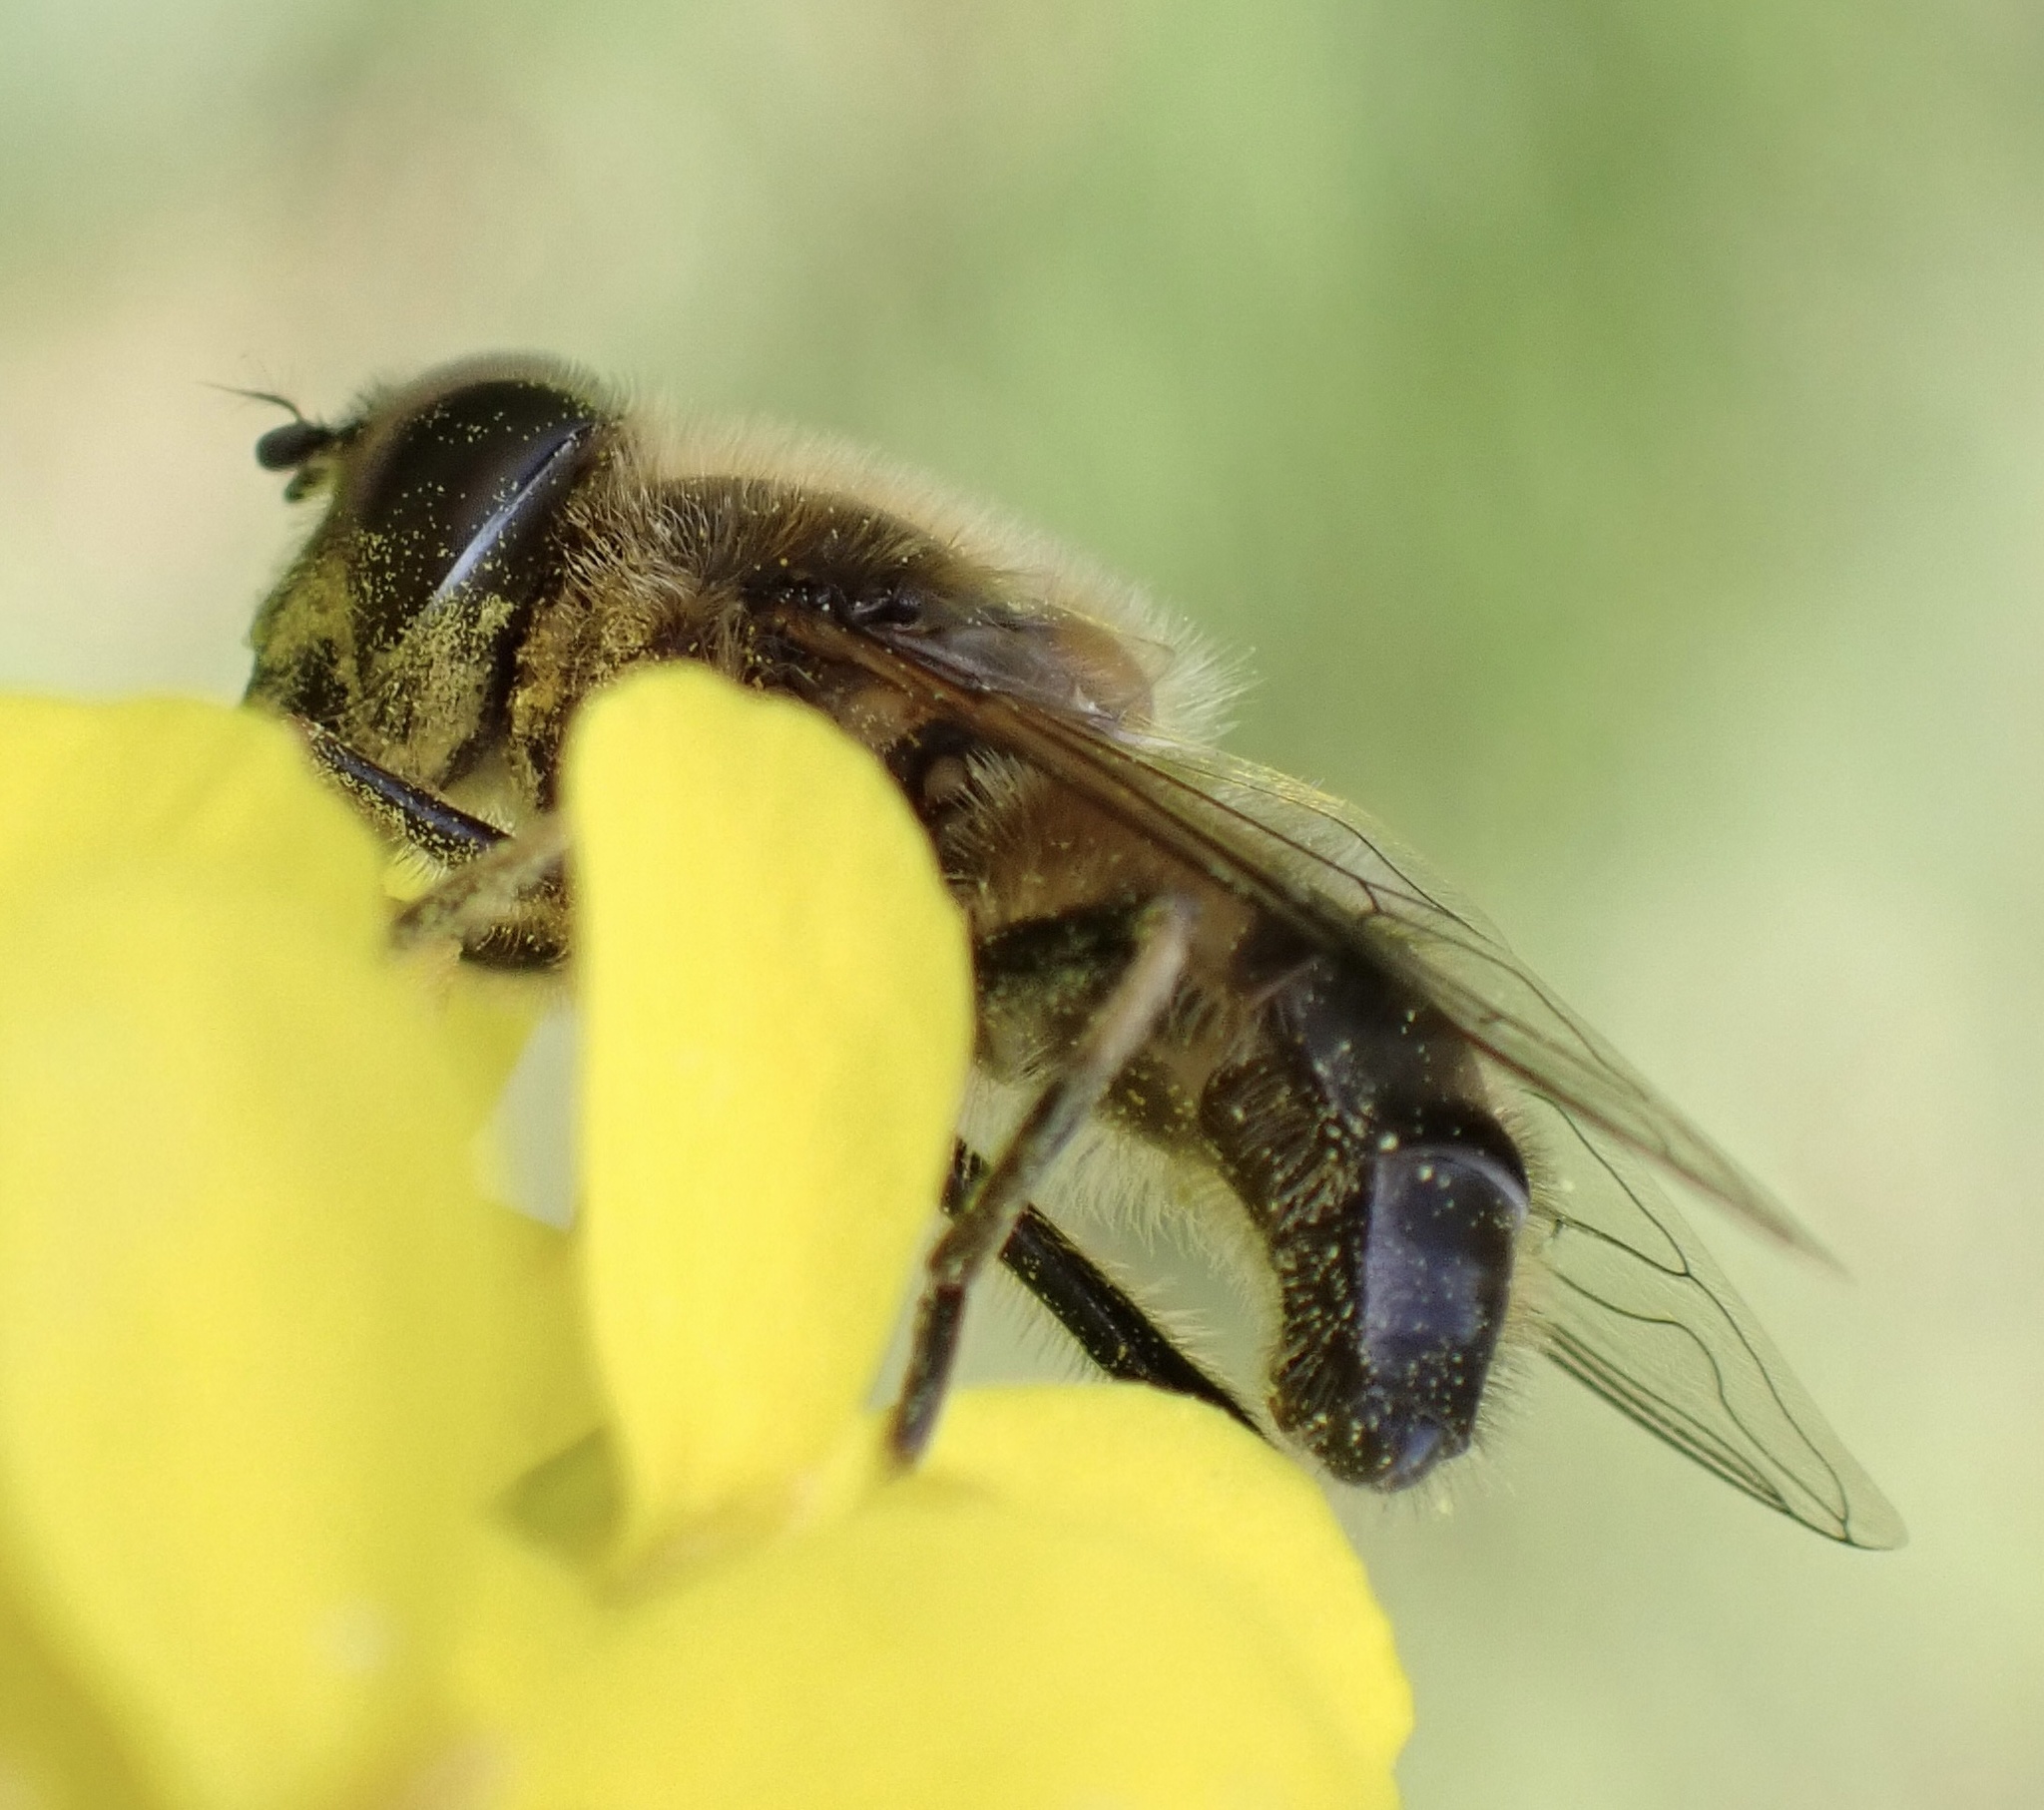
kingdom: Animalia
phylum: Arthropoda
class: Insecta
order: Diptera
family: Syrphidae
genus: Eristalis
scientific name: Eristalis pertinax
